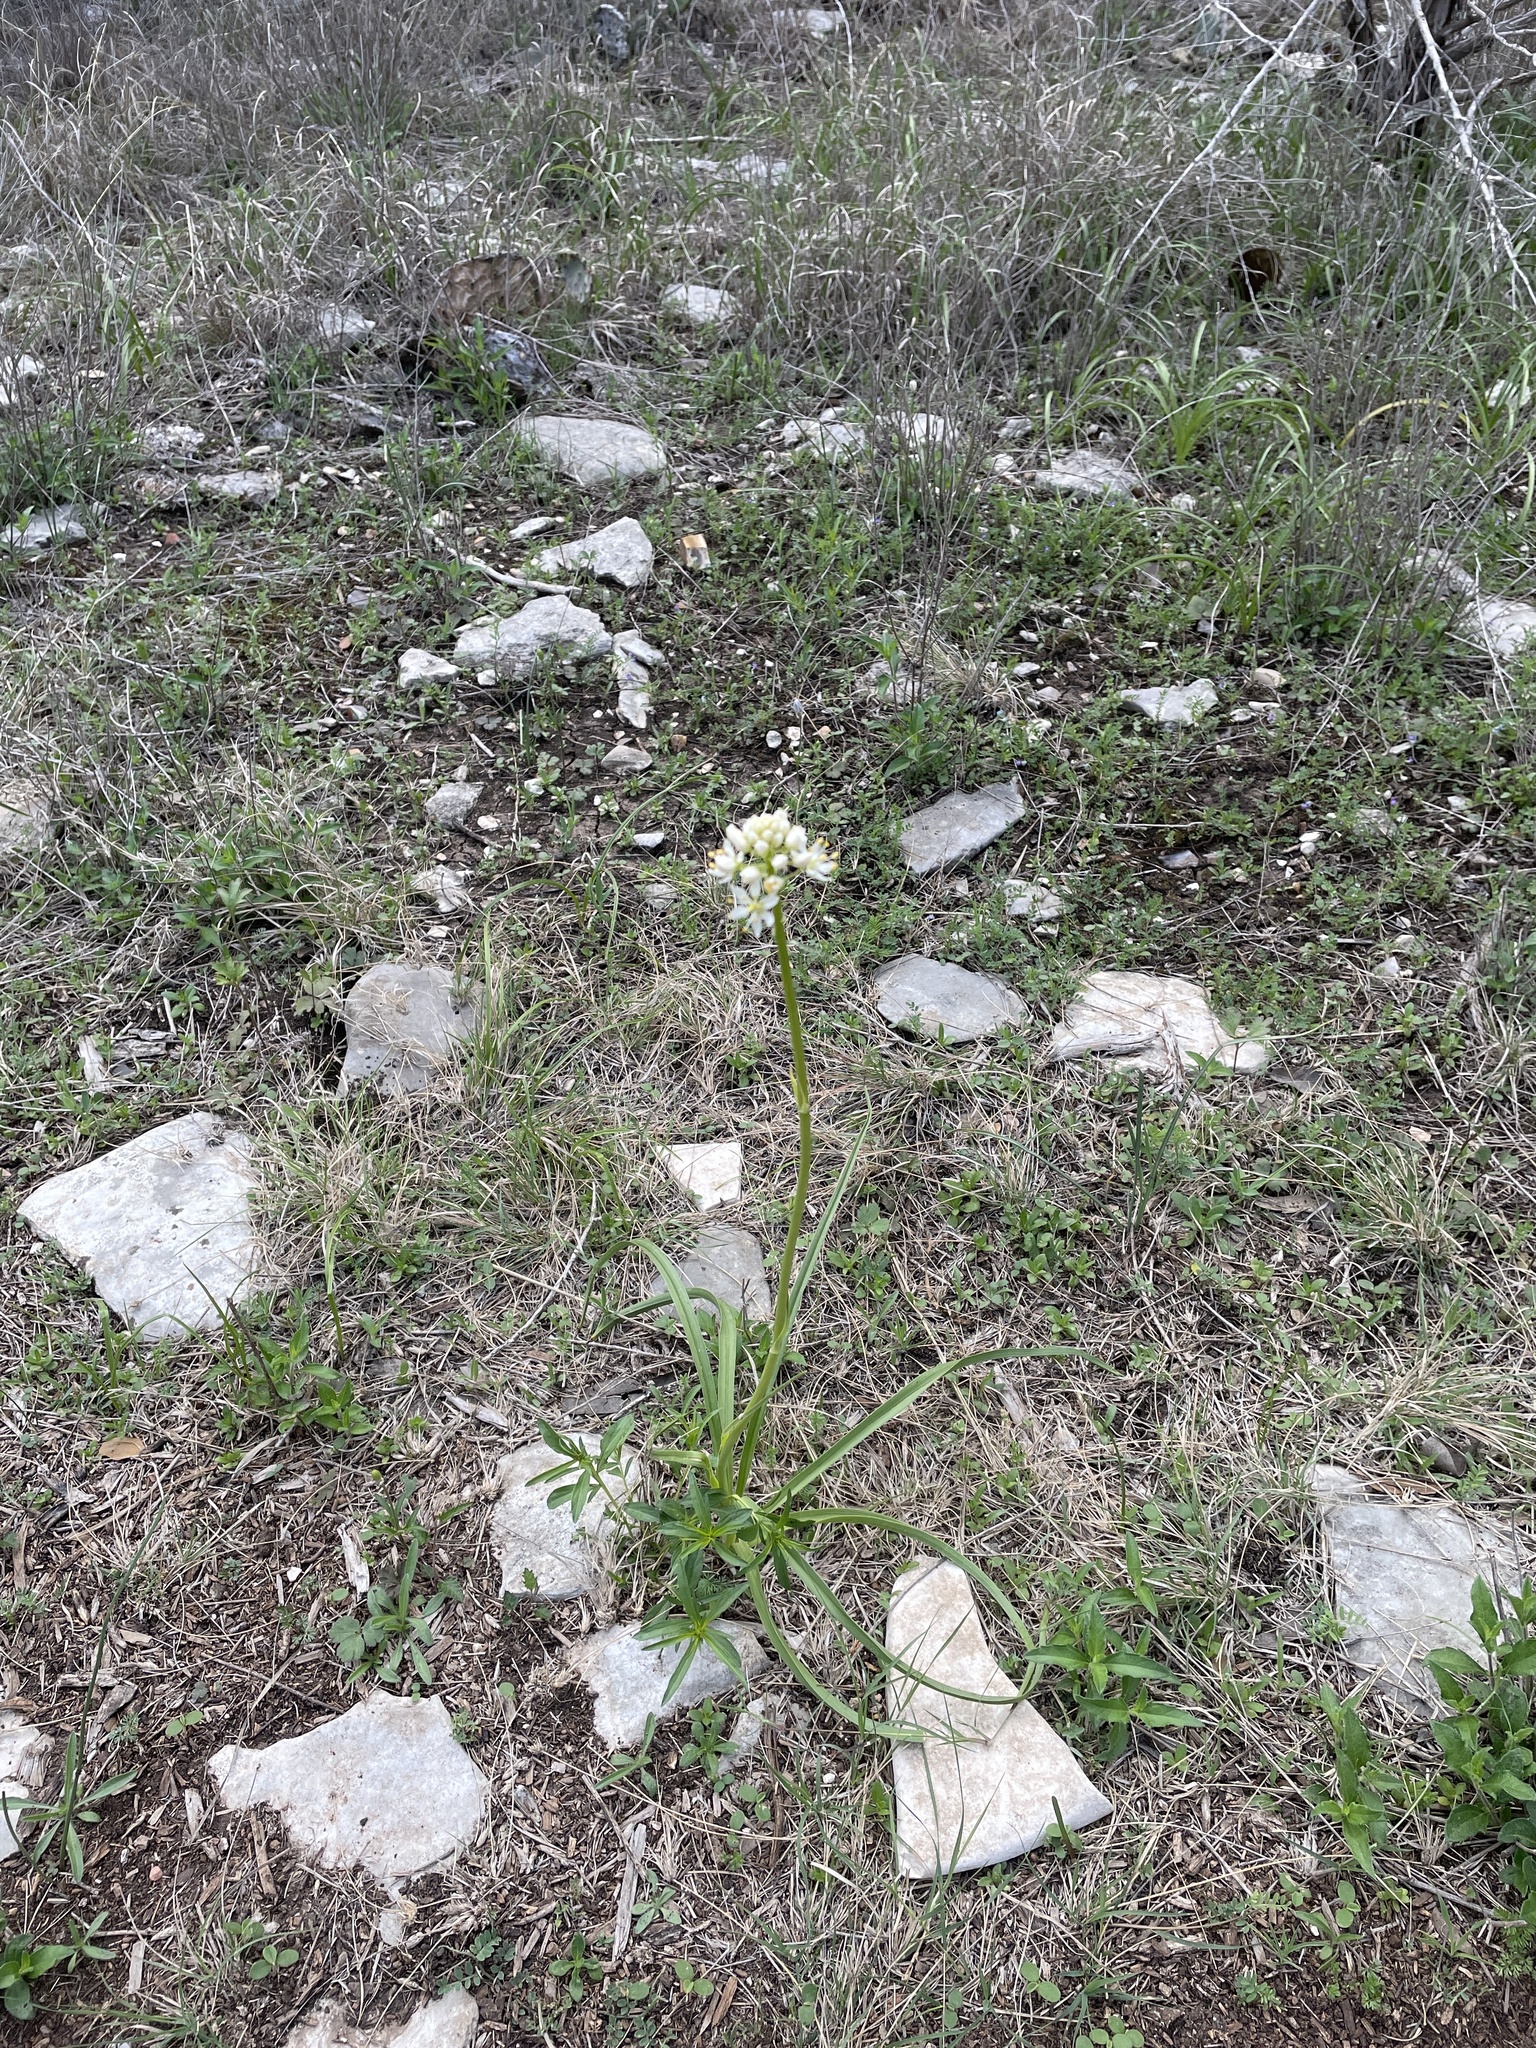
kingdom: Plantae
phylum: Tracheophyta
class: Liliopsida
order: Liliales
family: Melanthiaceae
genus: Toxicoscordion
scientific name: Toxicoscordion nuttallii
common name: Poison sego
